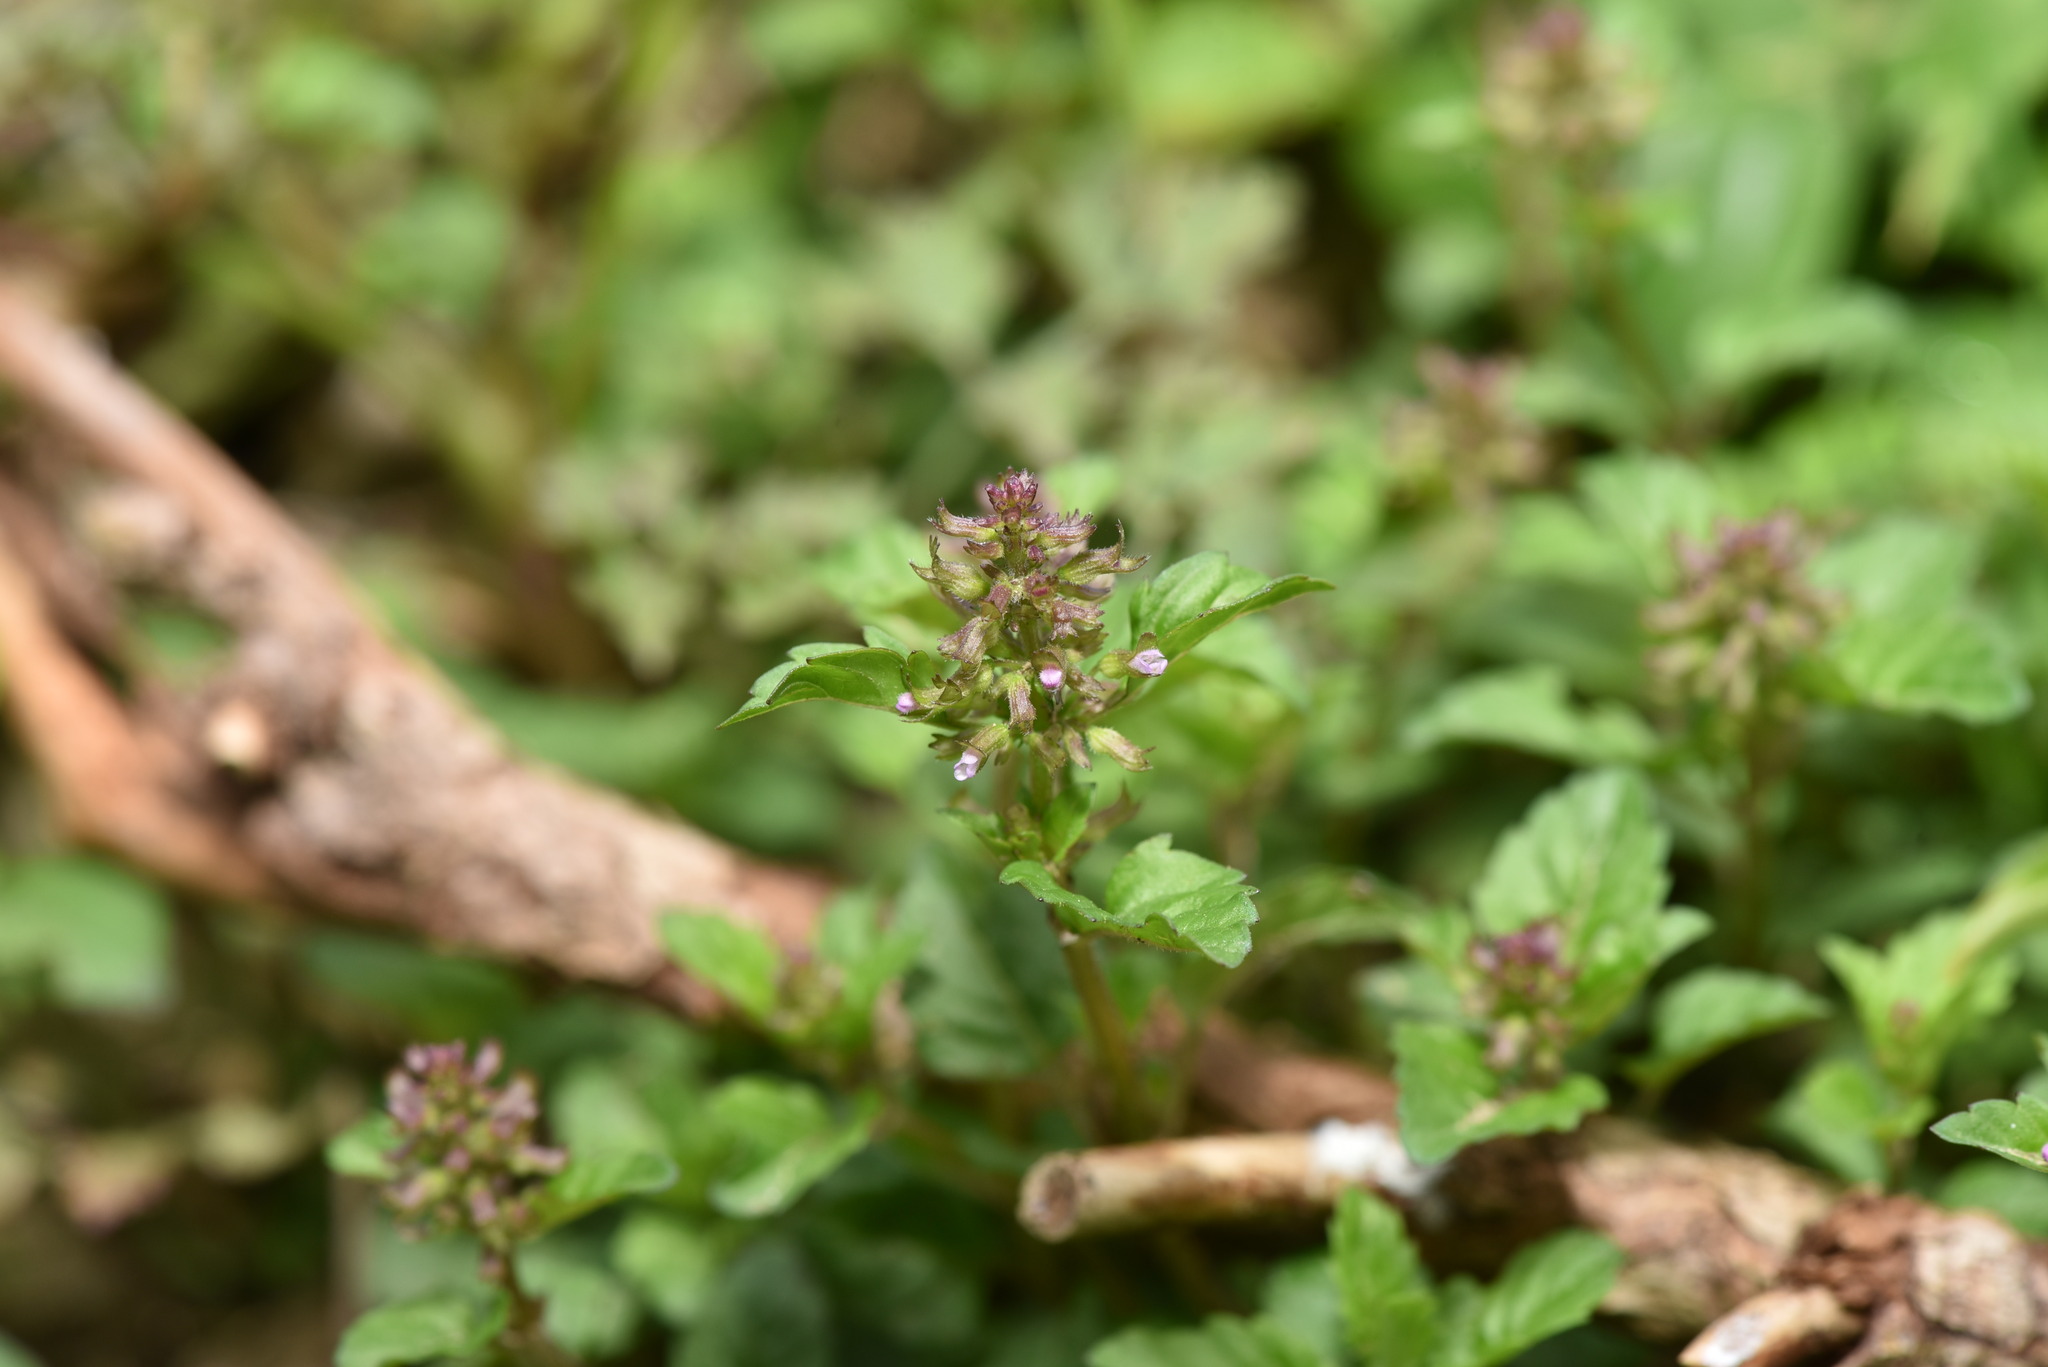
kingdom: Plantae
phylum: Tracheophyta
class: Magnoliopsida
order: Lamiales
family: Lamiaceae
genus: Clinopodium
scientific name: Clinopodium gracile
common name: Slender wild basil
